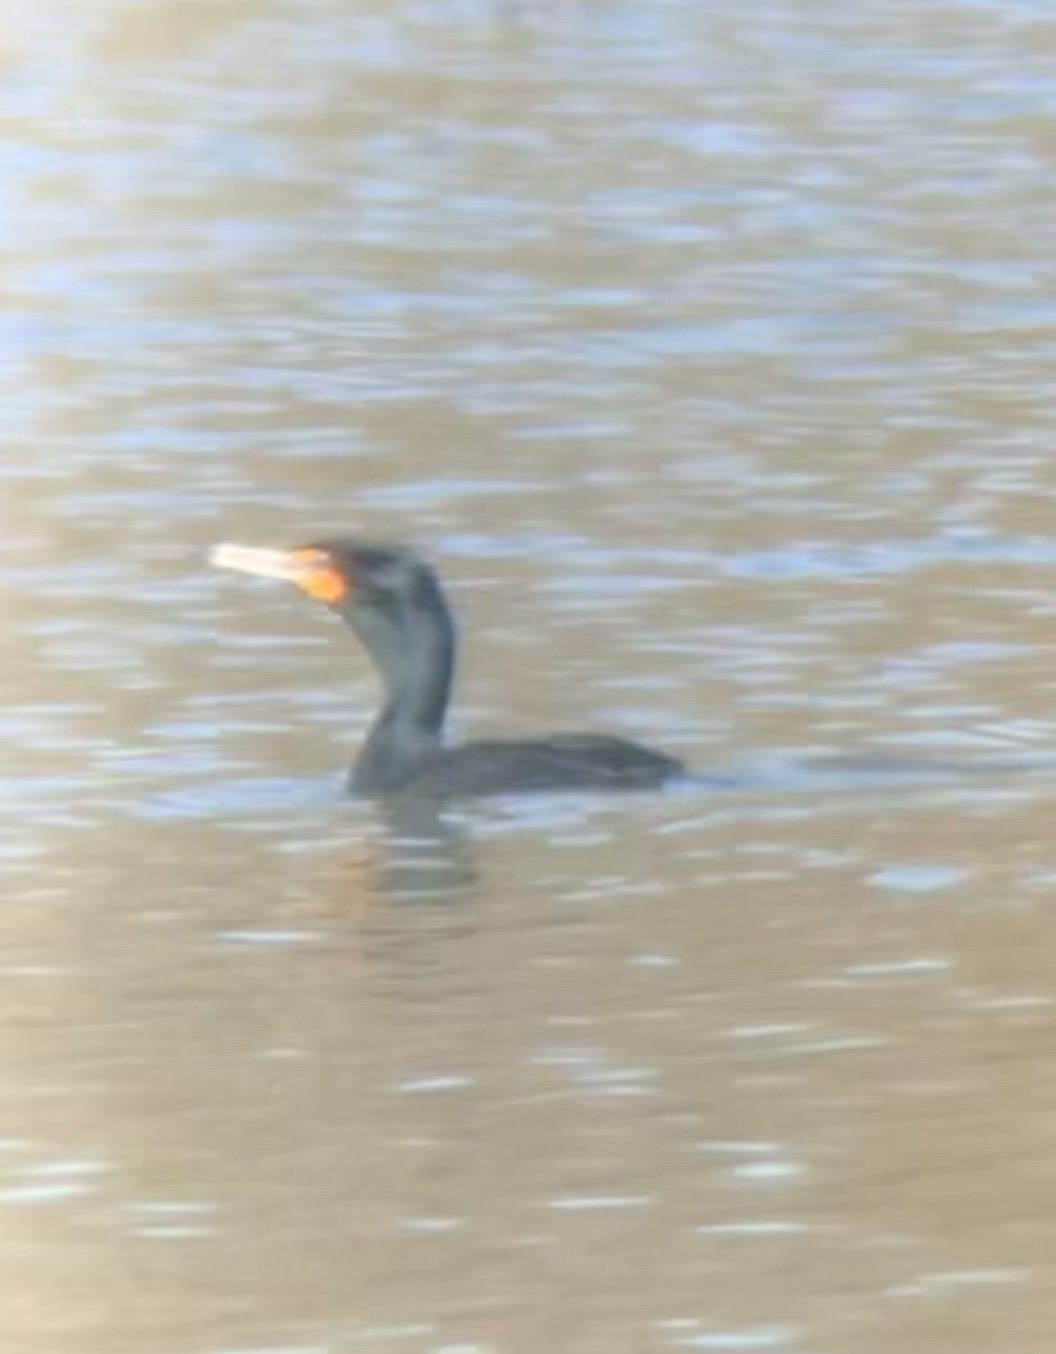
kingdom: Animalia
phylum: Chordata
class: Aves
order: Suliformes
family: Phalacrocoracidae
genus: Phalacrocorax
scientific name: Phalacrocorax auritus
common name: Double-crested cormorant
